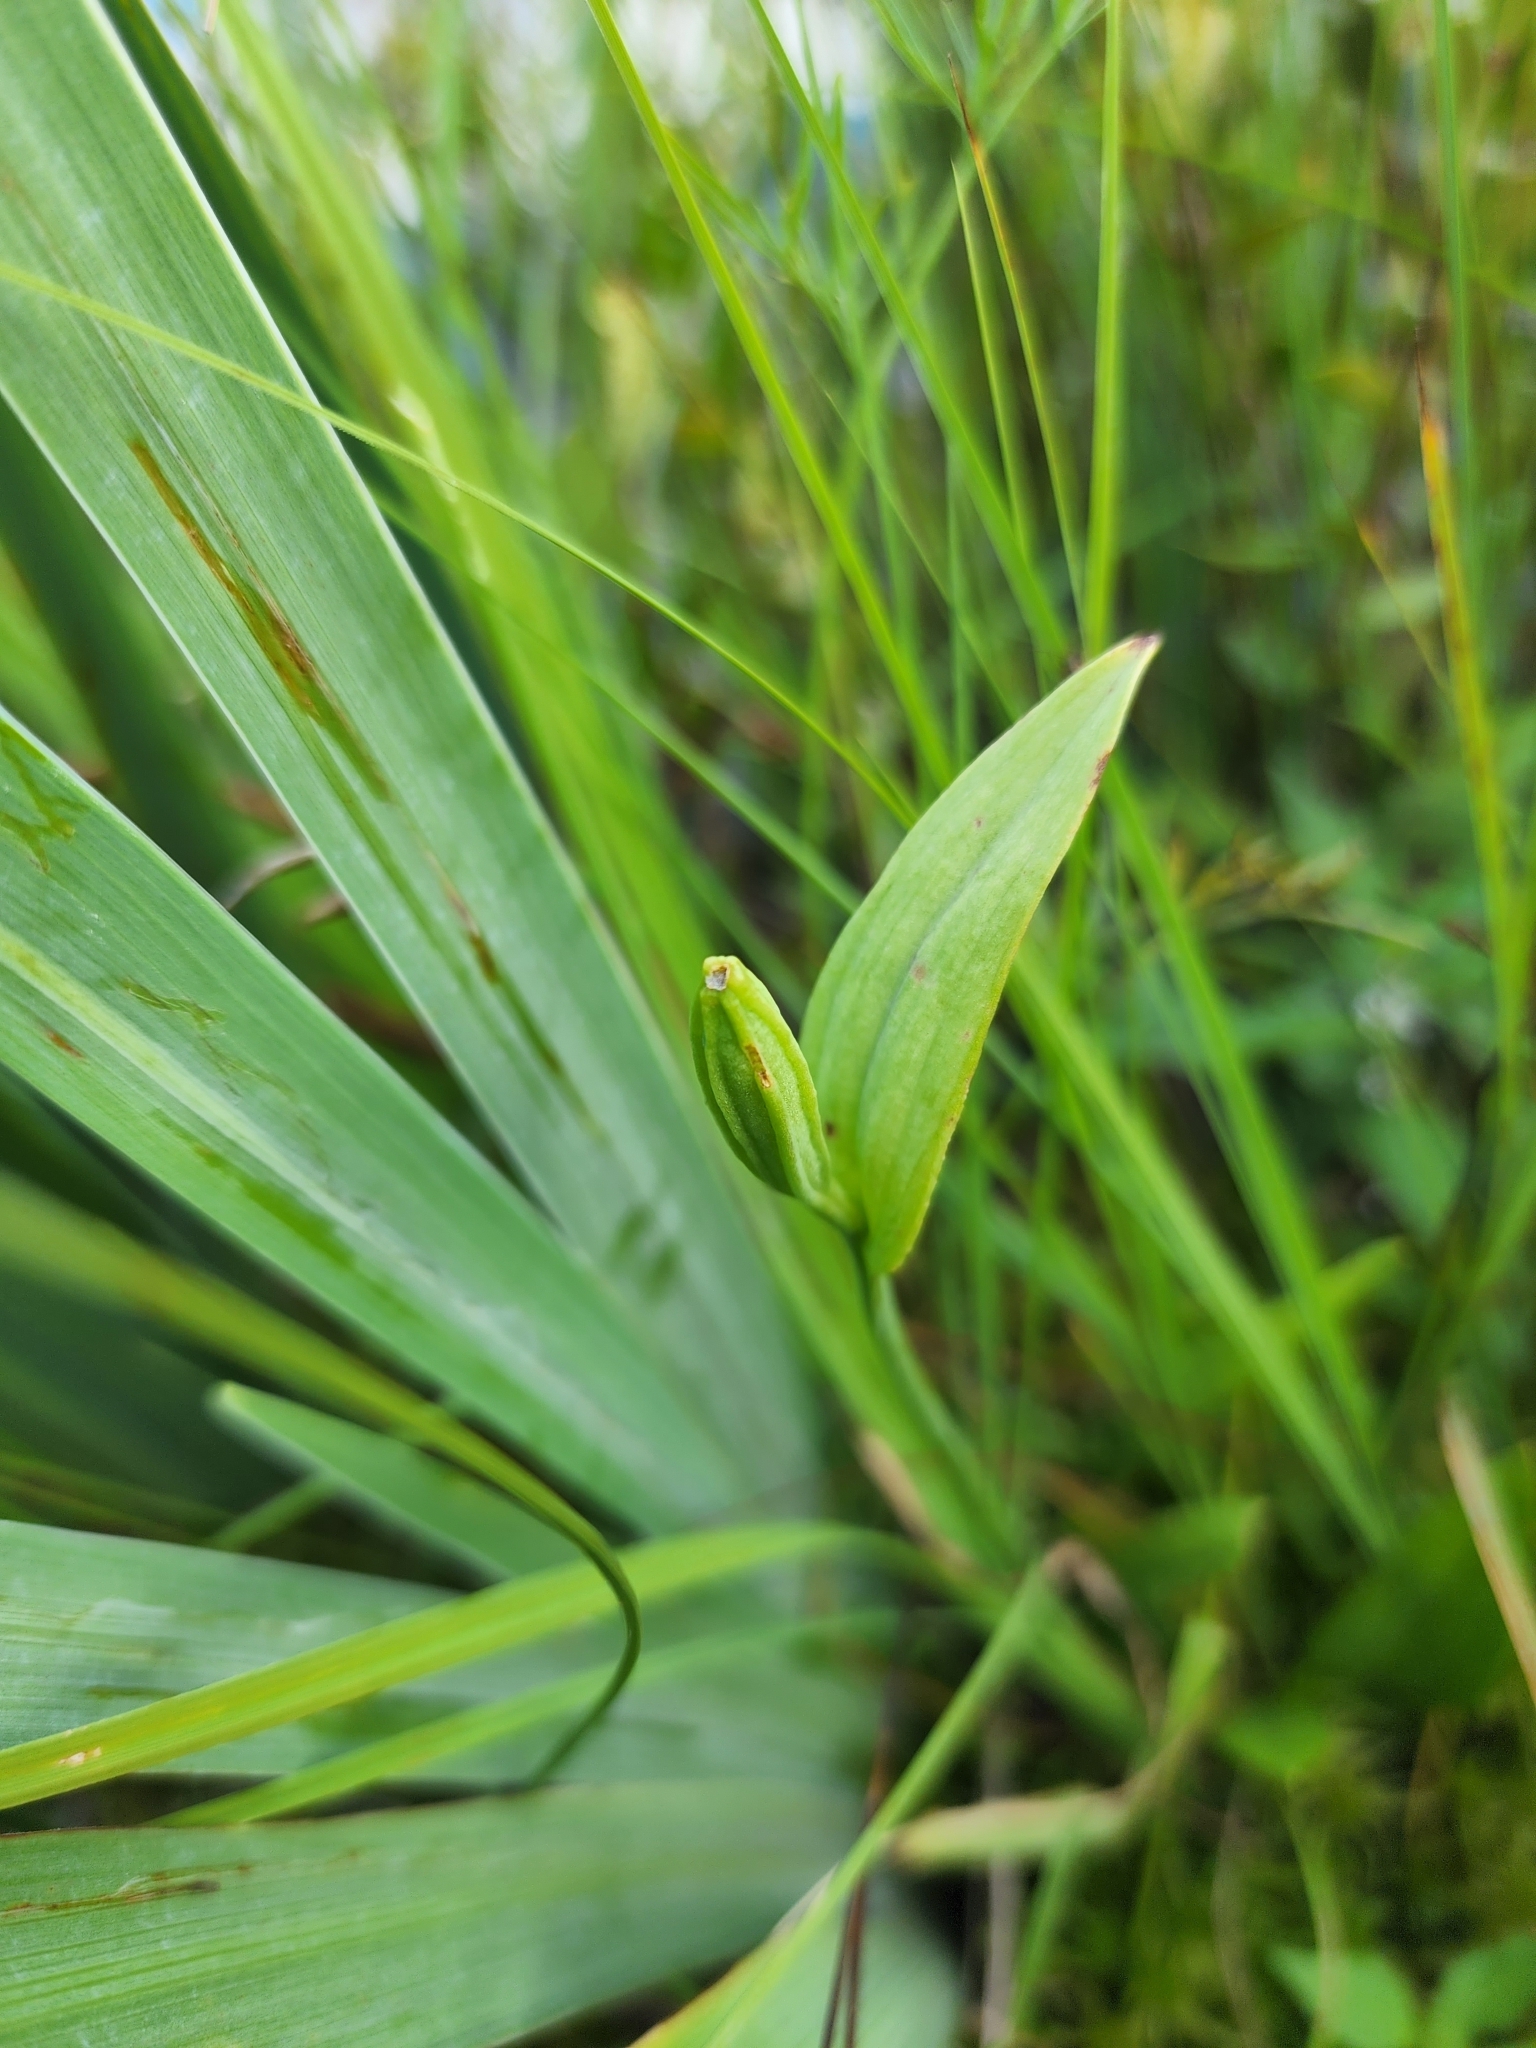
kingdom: Plantae
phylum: Tracheophyta
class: Liliopsida
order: Asparagales
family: Orchidaceae
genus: Pogonia
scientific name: Pogonia ophioglossoides
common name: Rose pogonia
